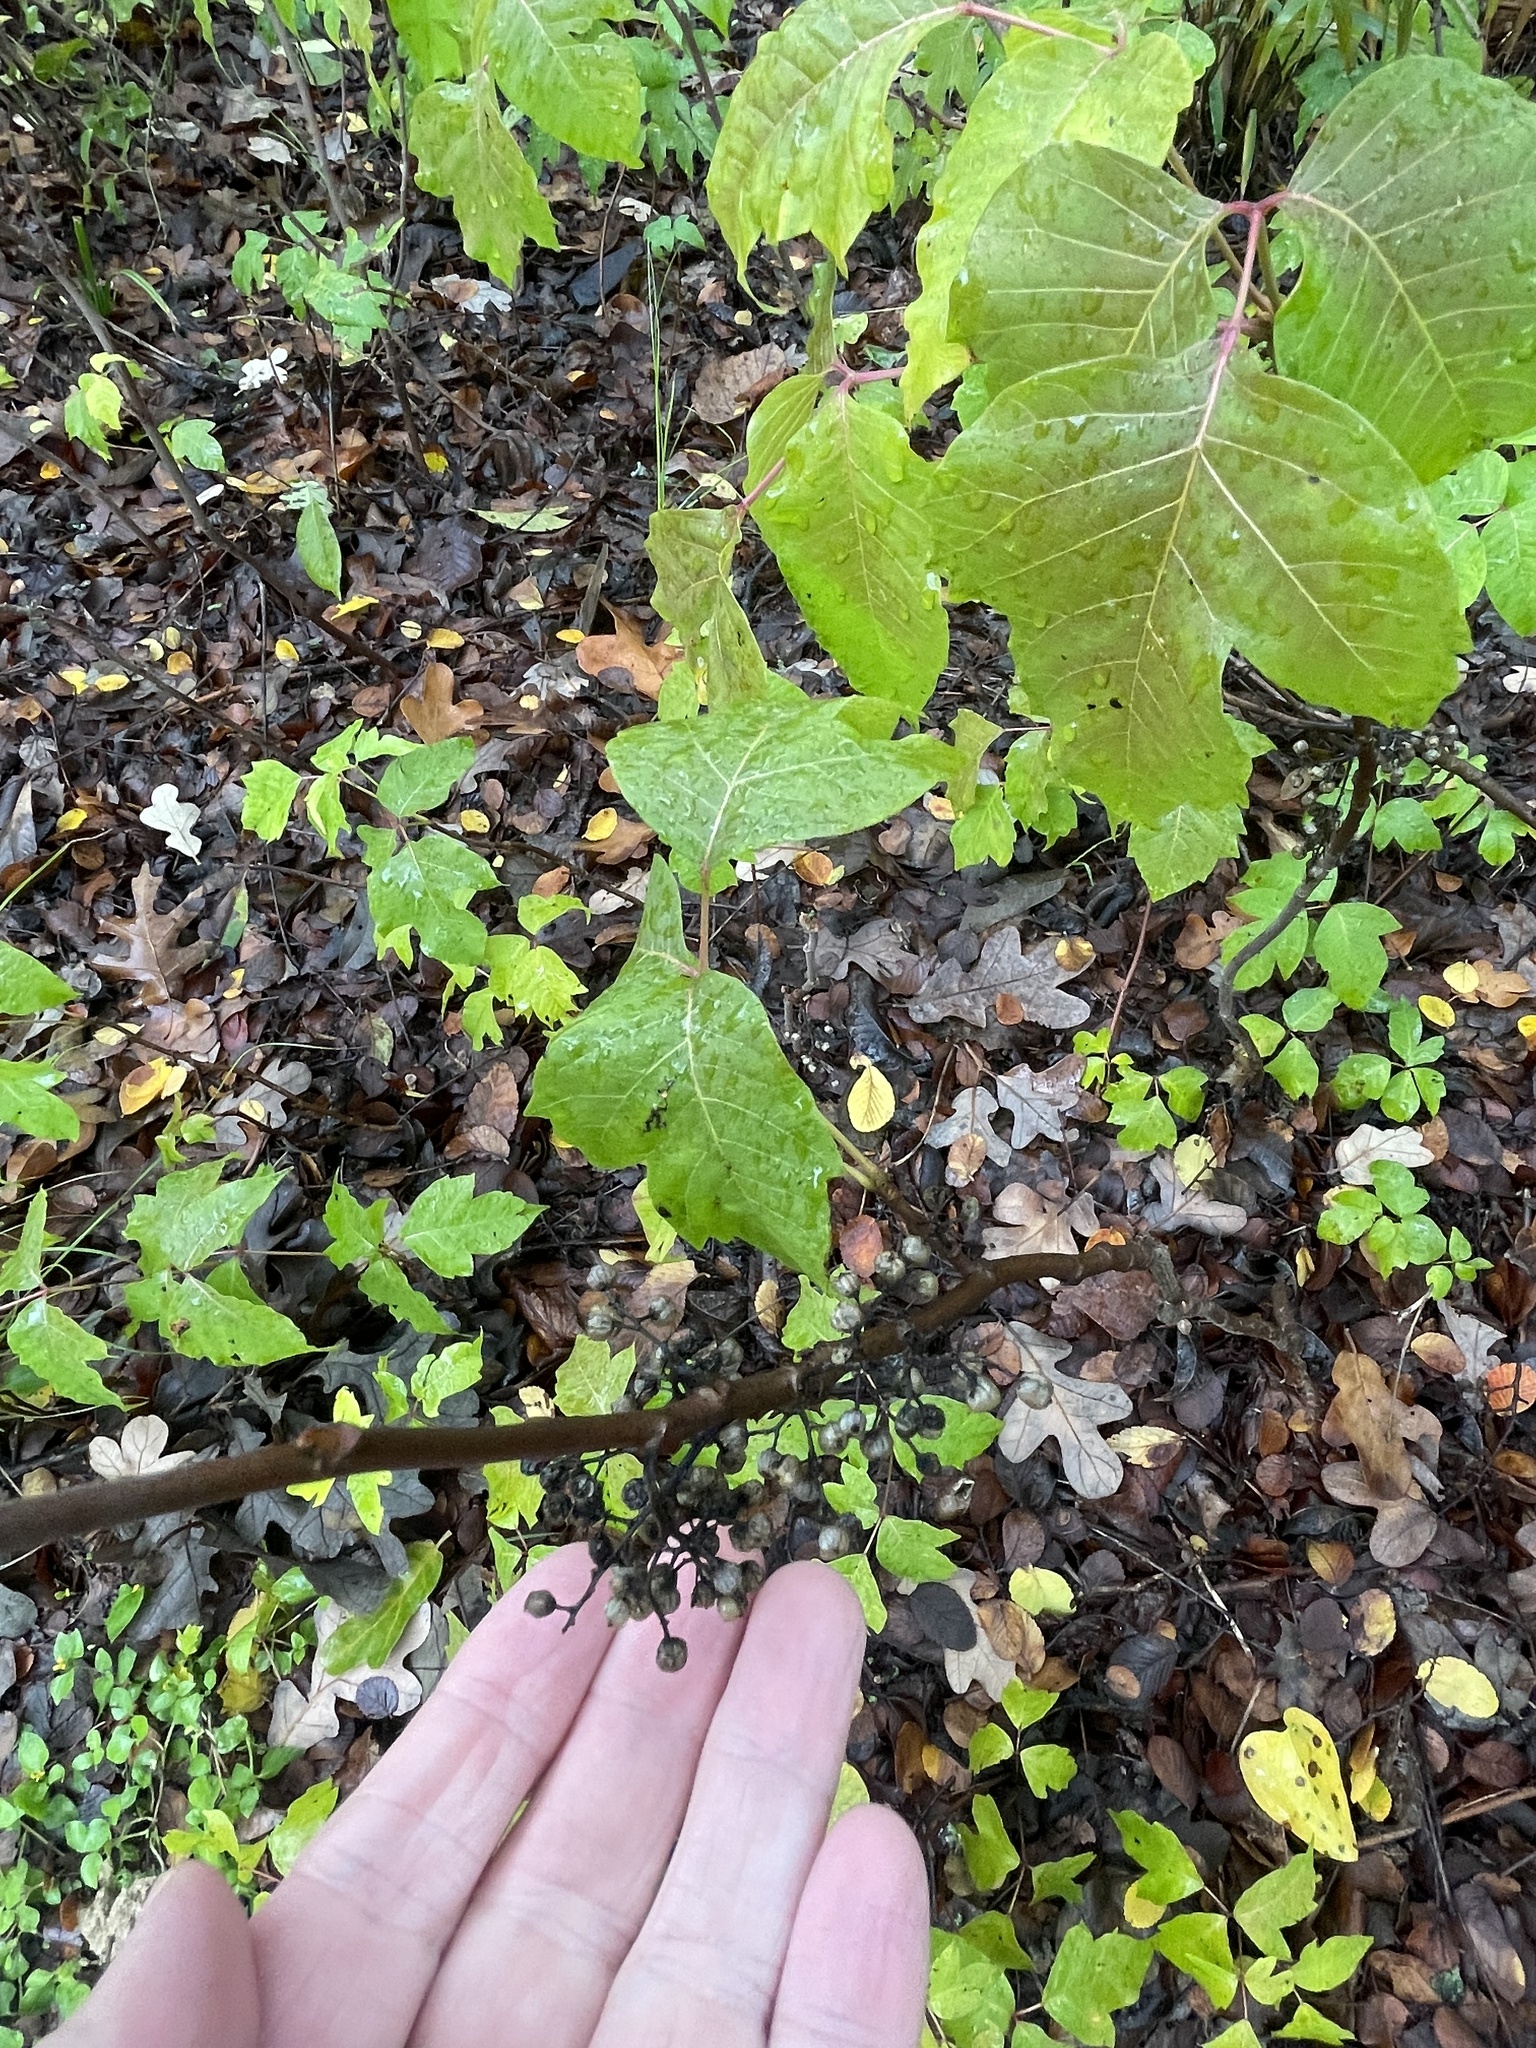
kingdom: Plantae
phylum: Tracheophyta
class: Magnoliopsida
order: Sapindales
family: Anacardiaceae
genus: Toxicodendron
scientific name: Toxicodendron radicans
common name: Poison ivy
